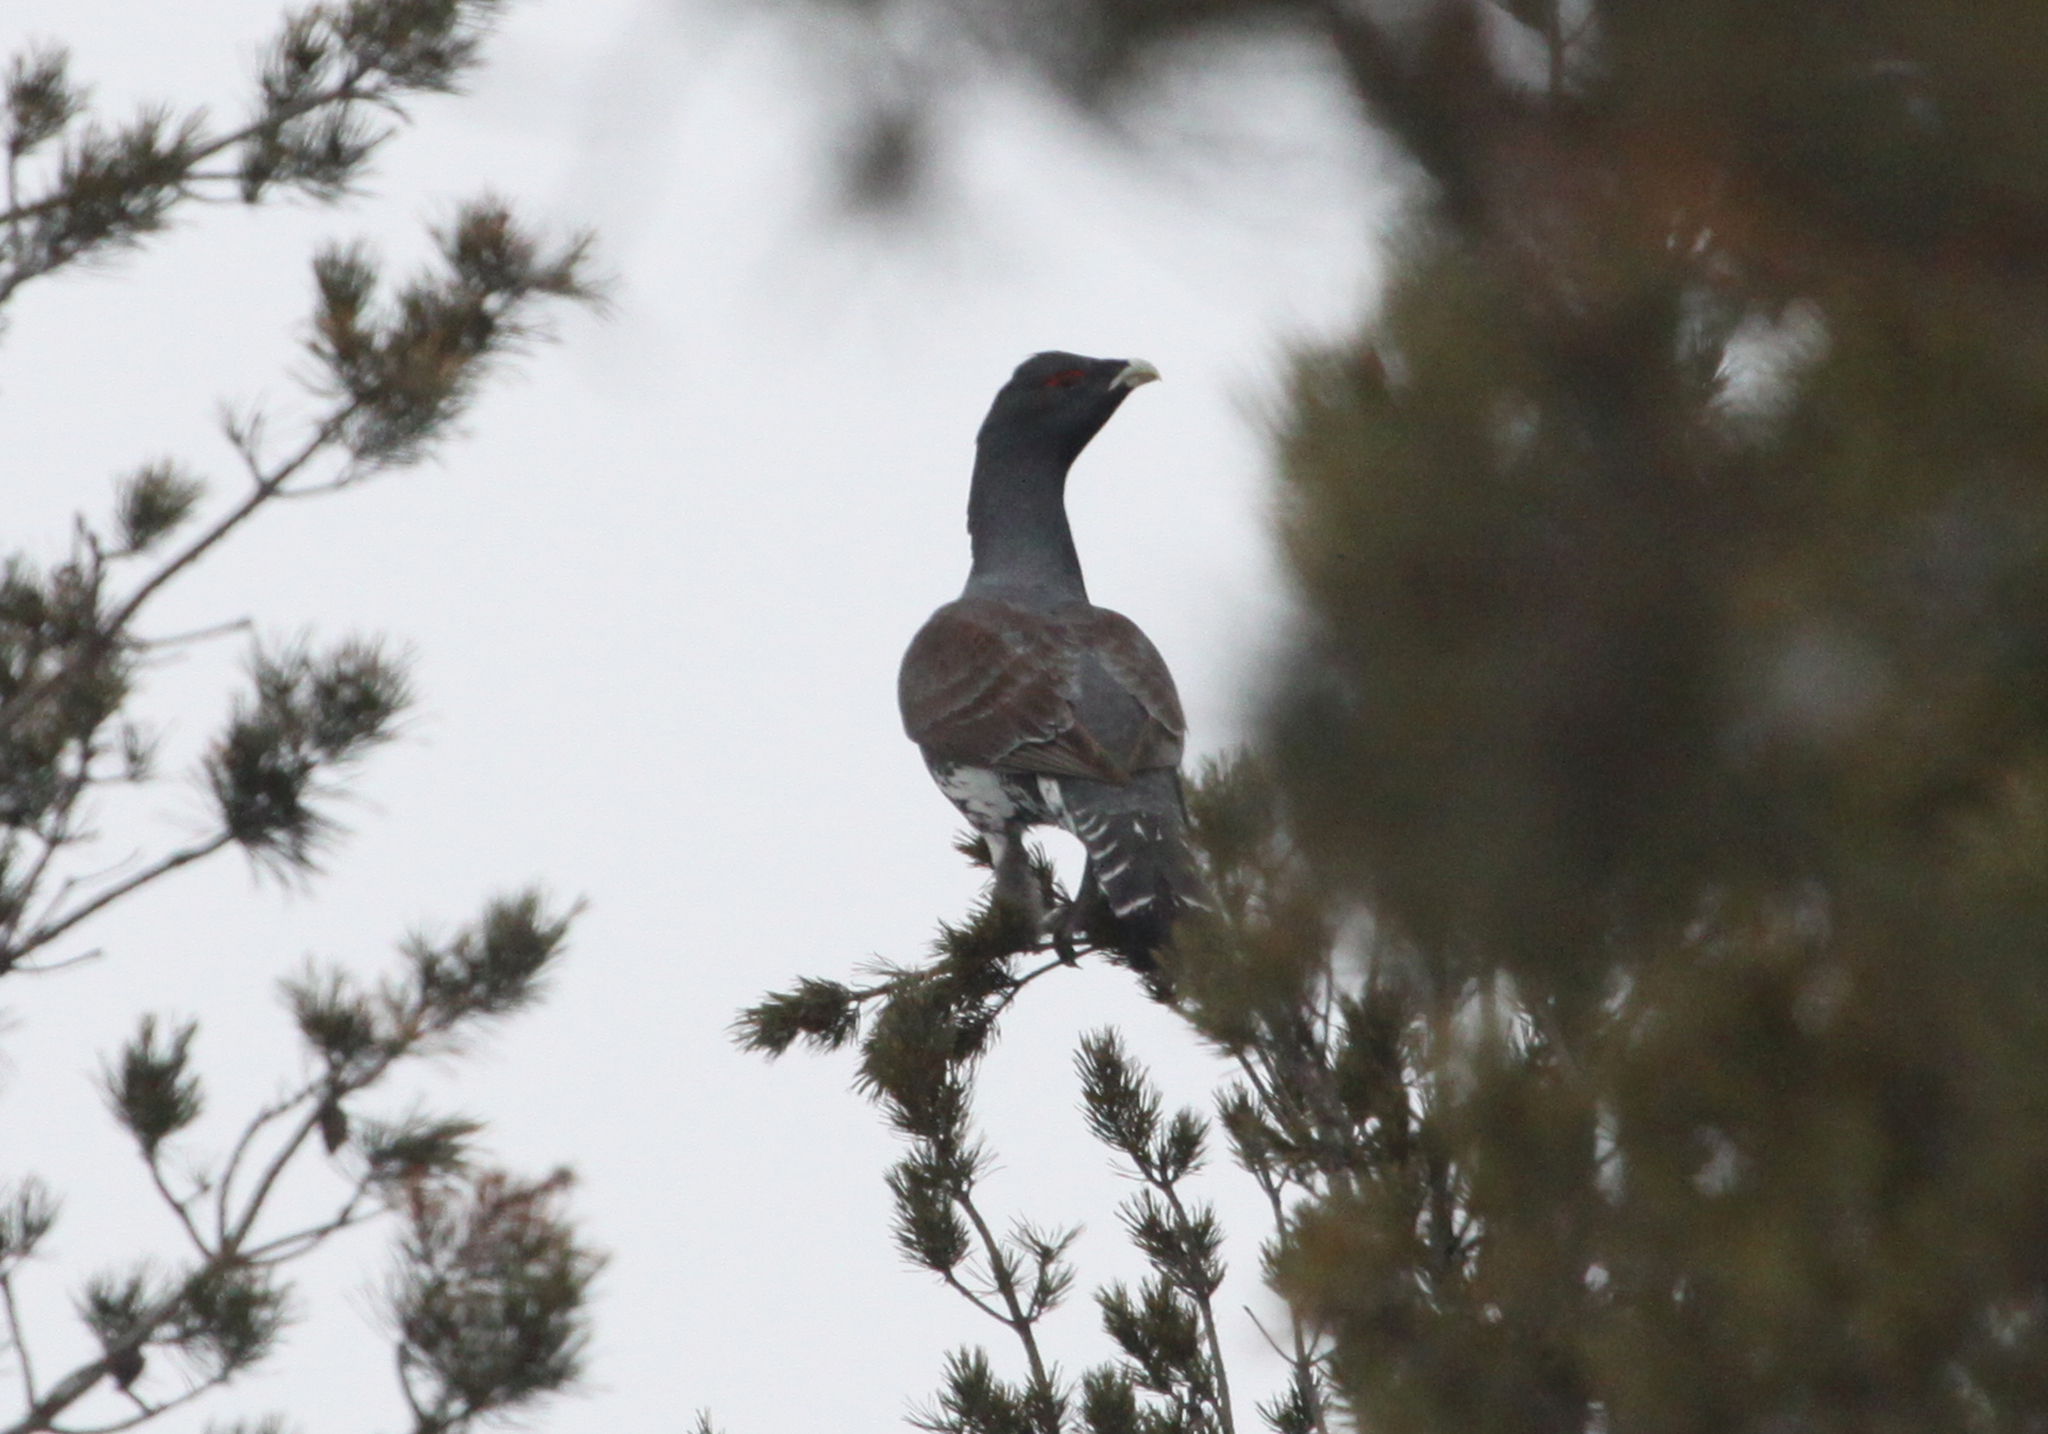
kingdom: Animalia
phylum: Chordata
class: Aves
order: Galliformes
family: Phasianidae
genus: Tetrao
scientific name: Tetrao urogallus
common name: Western capercaillie
